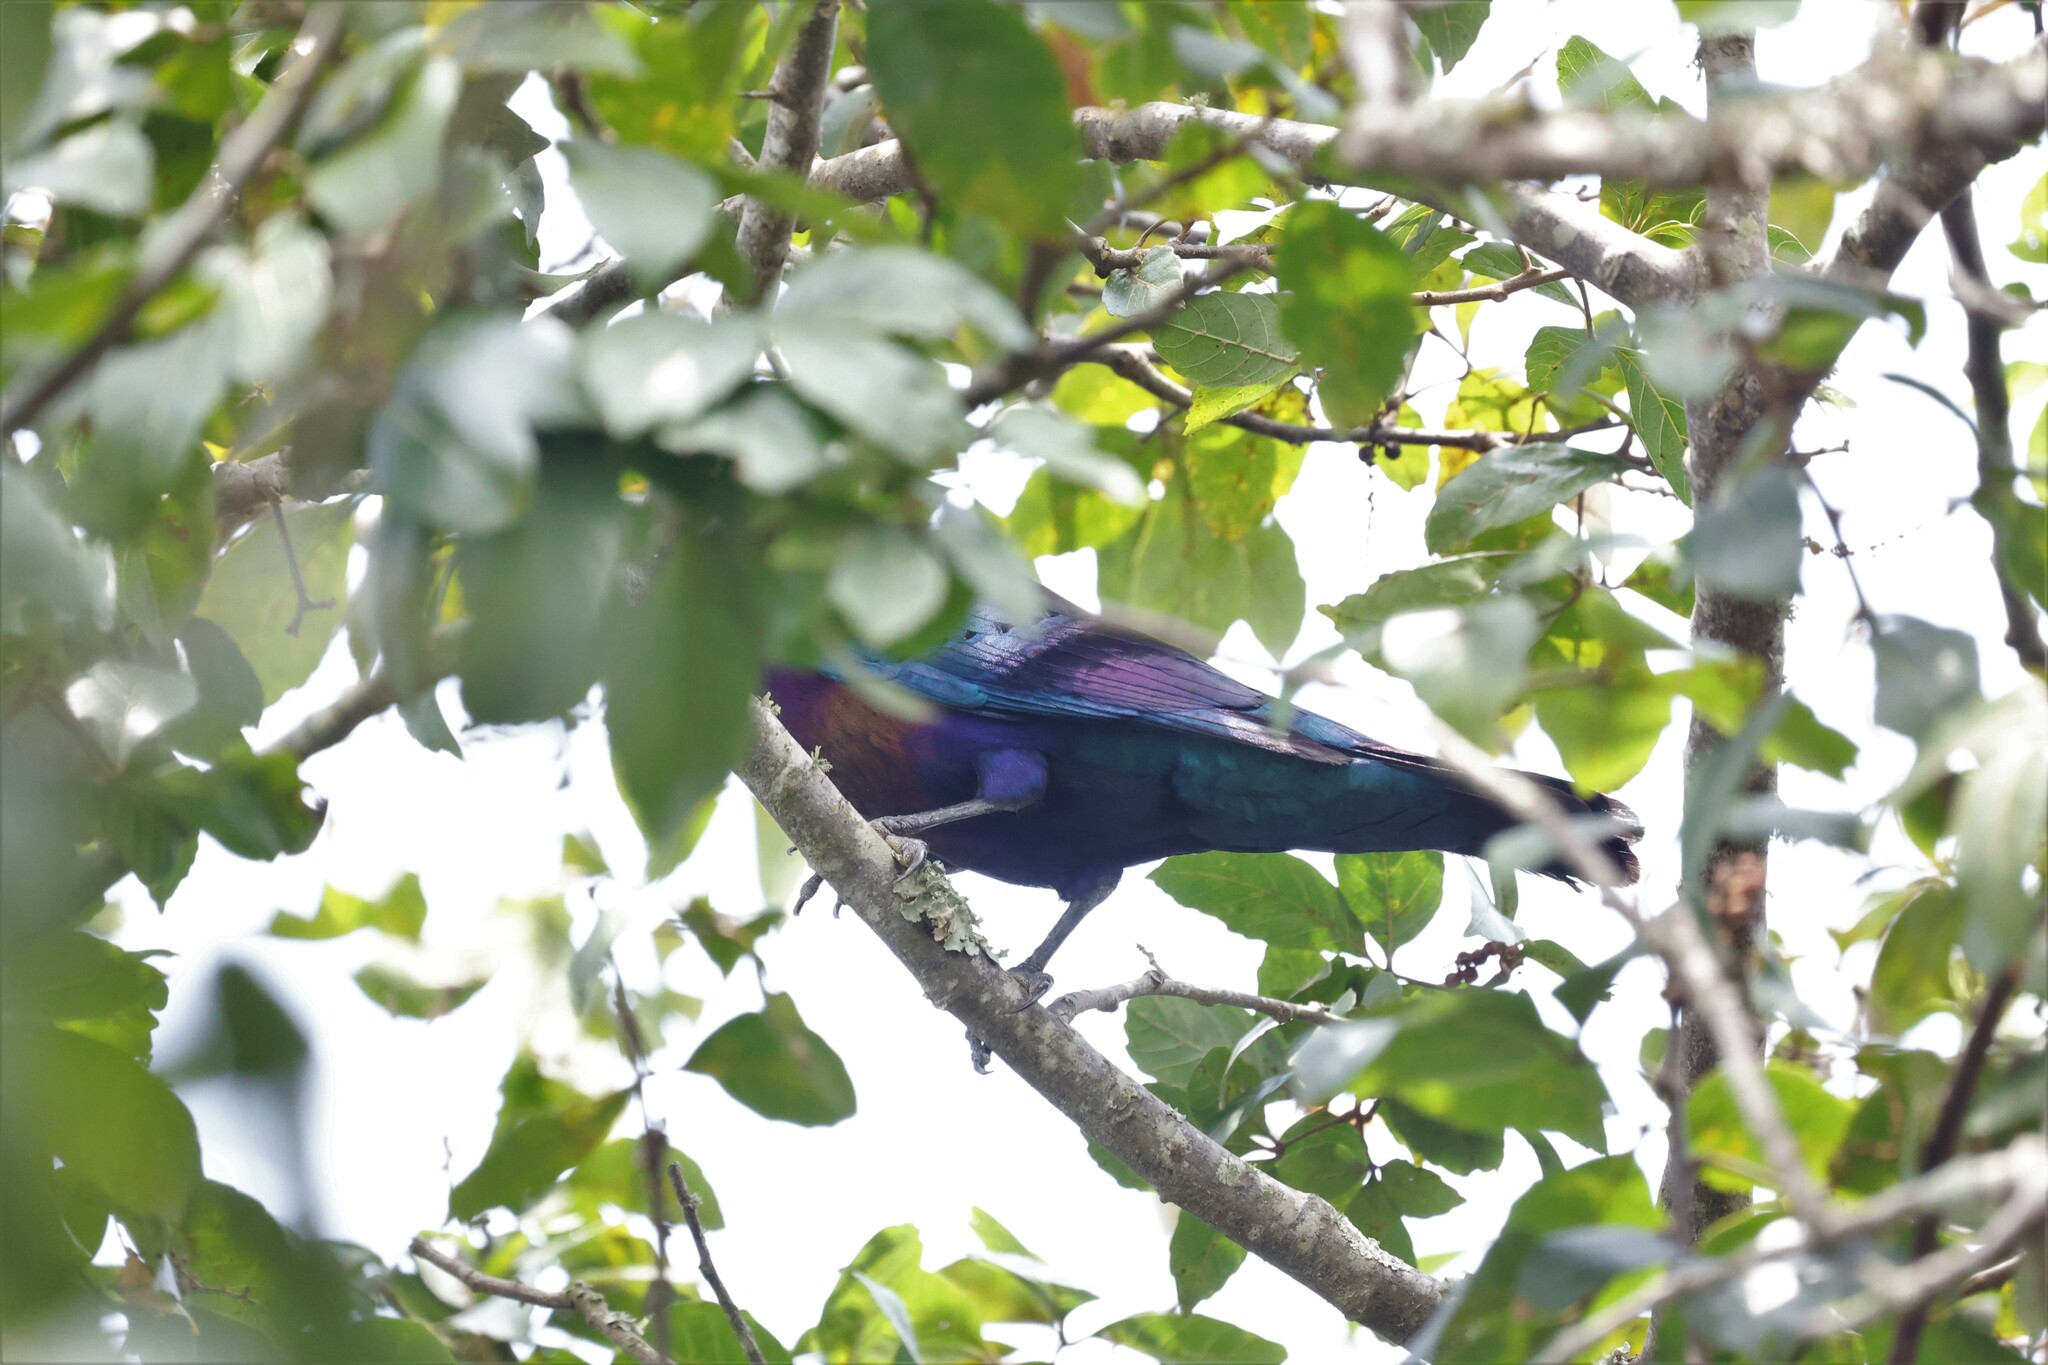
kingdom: Animalia
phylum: Chordata
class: Aves
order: Passeriformes
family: Sturnidae
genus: Lamprotornis
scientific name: Lamprotornis splendidus
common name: Splendid starling
